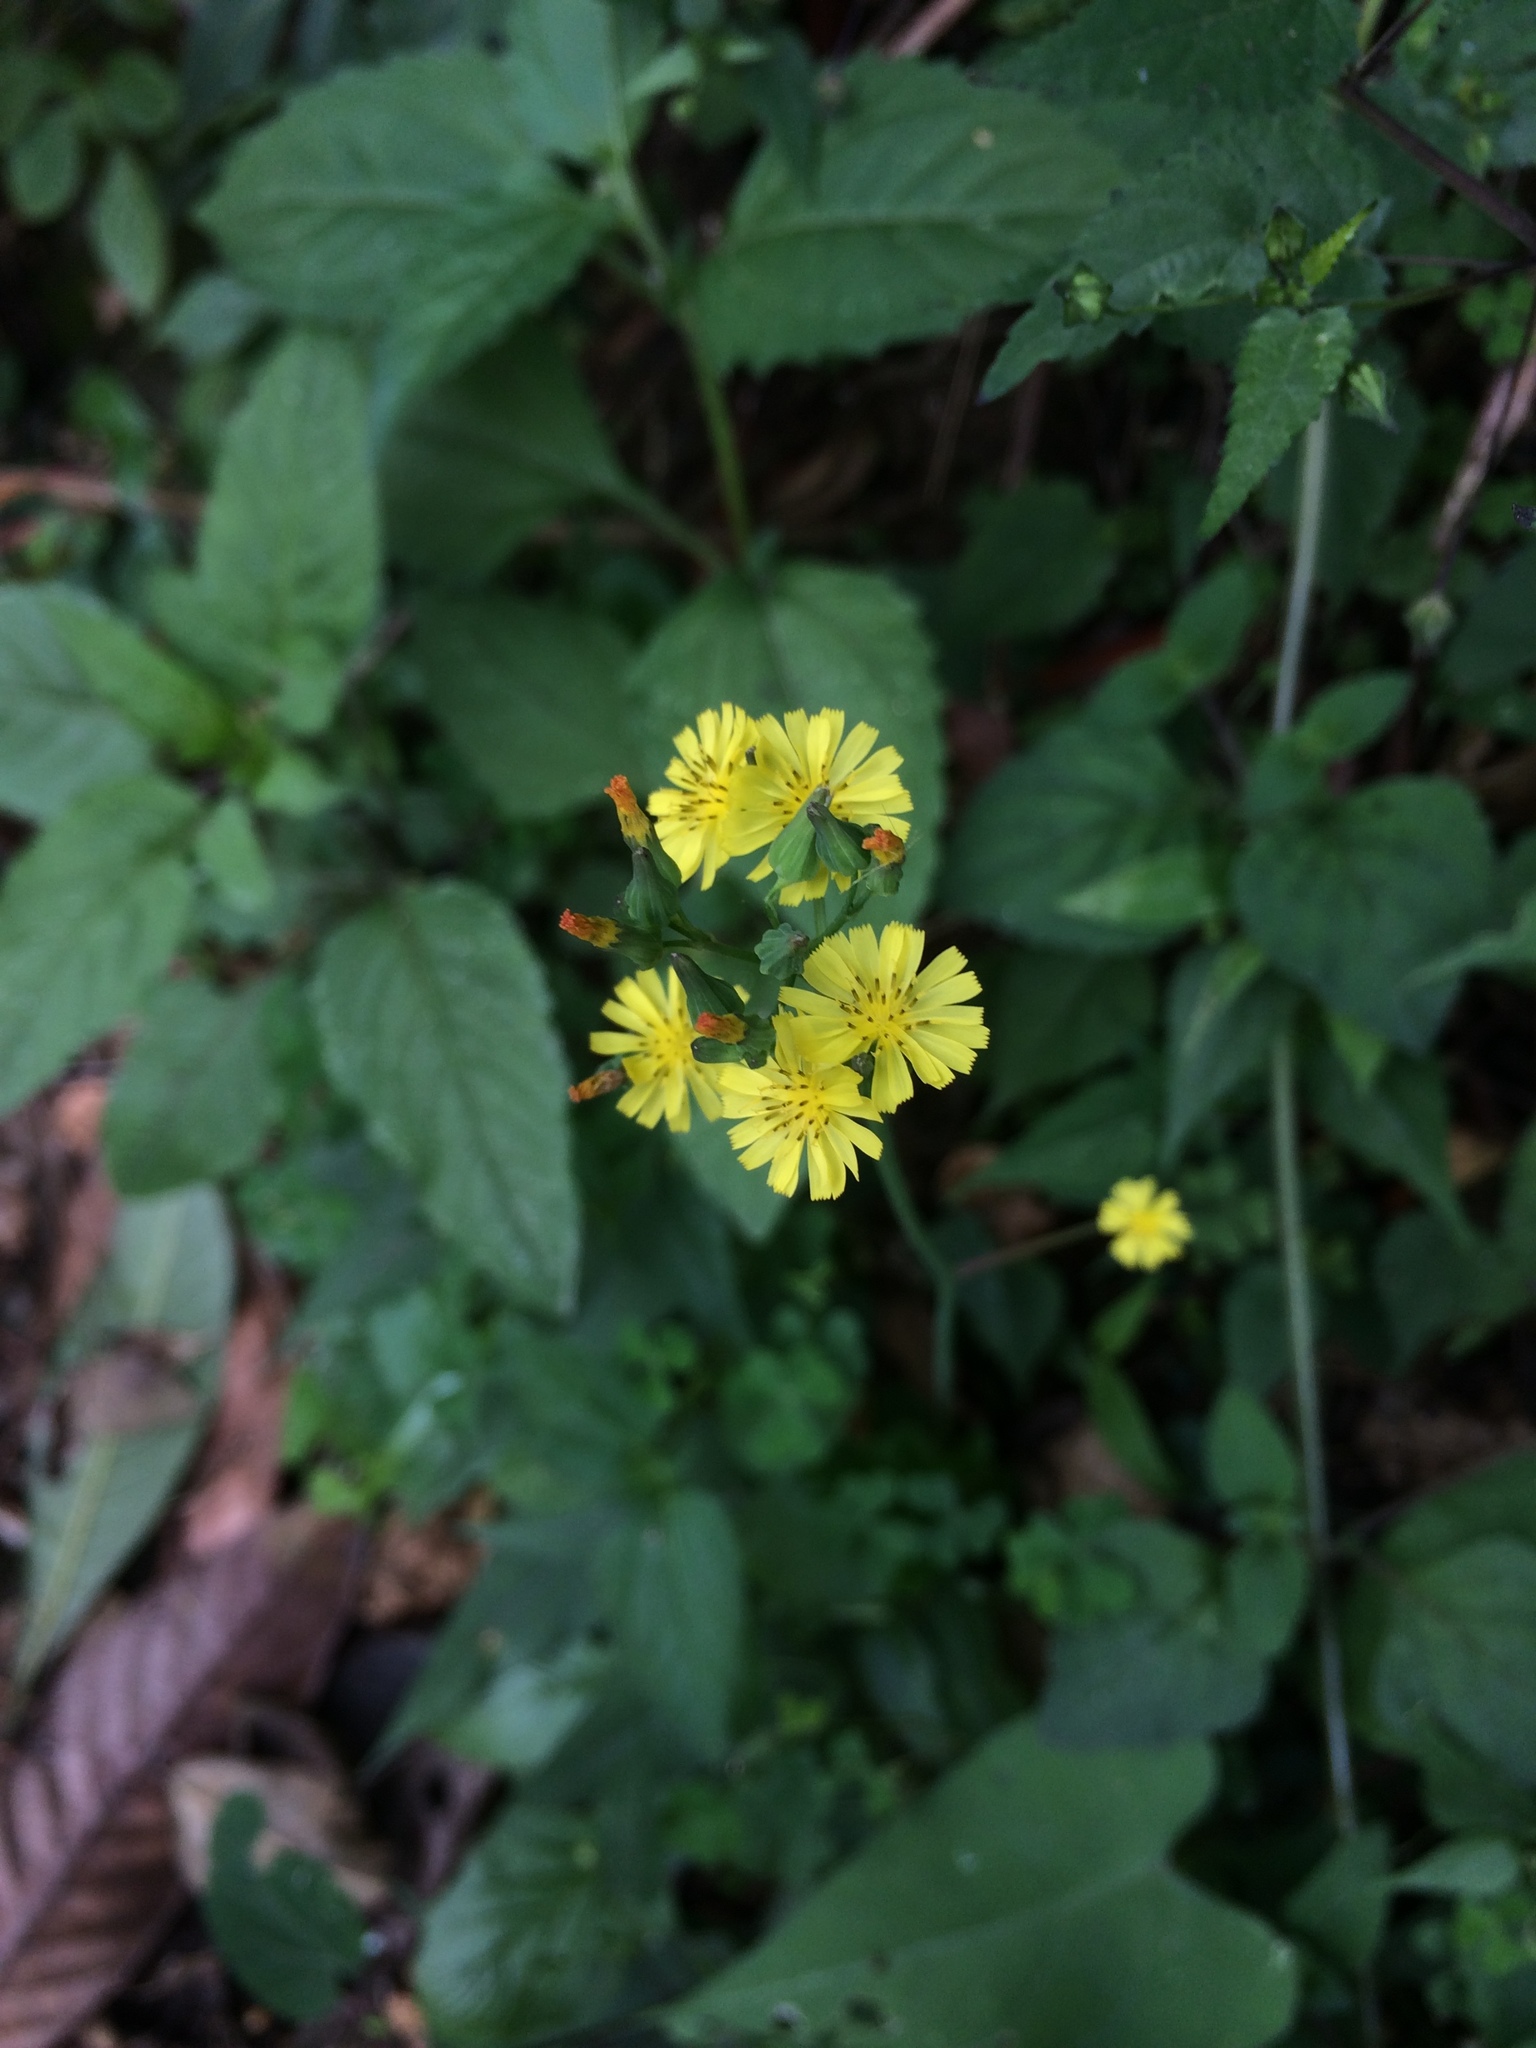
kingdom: Plantae
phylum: Tracheophyta
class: Magnoliopsida
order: Asterales
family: Asteraceae
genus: Youngia
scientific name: Youngia japonica
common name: Oriental false hawksbeard
